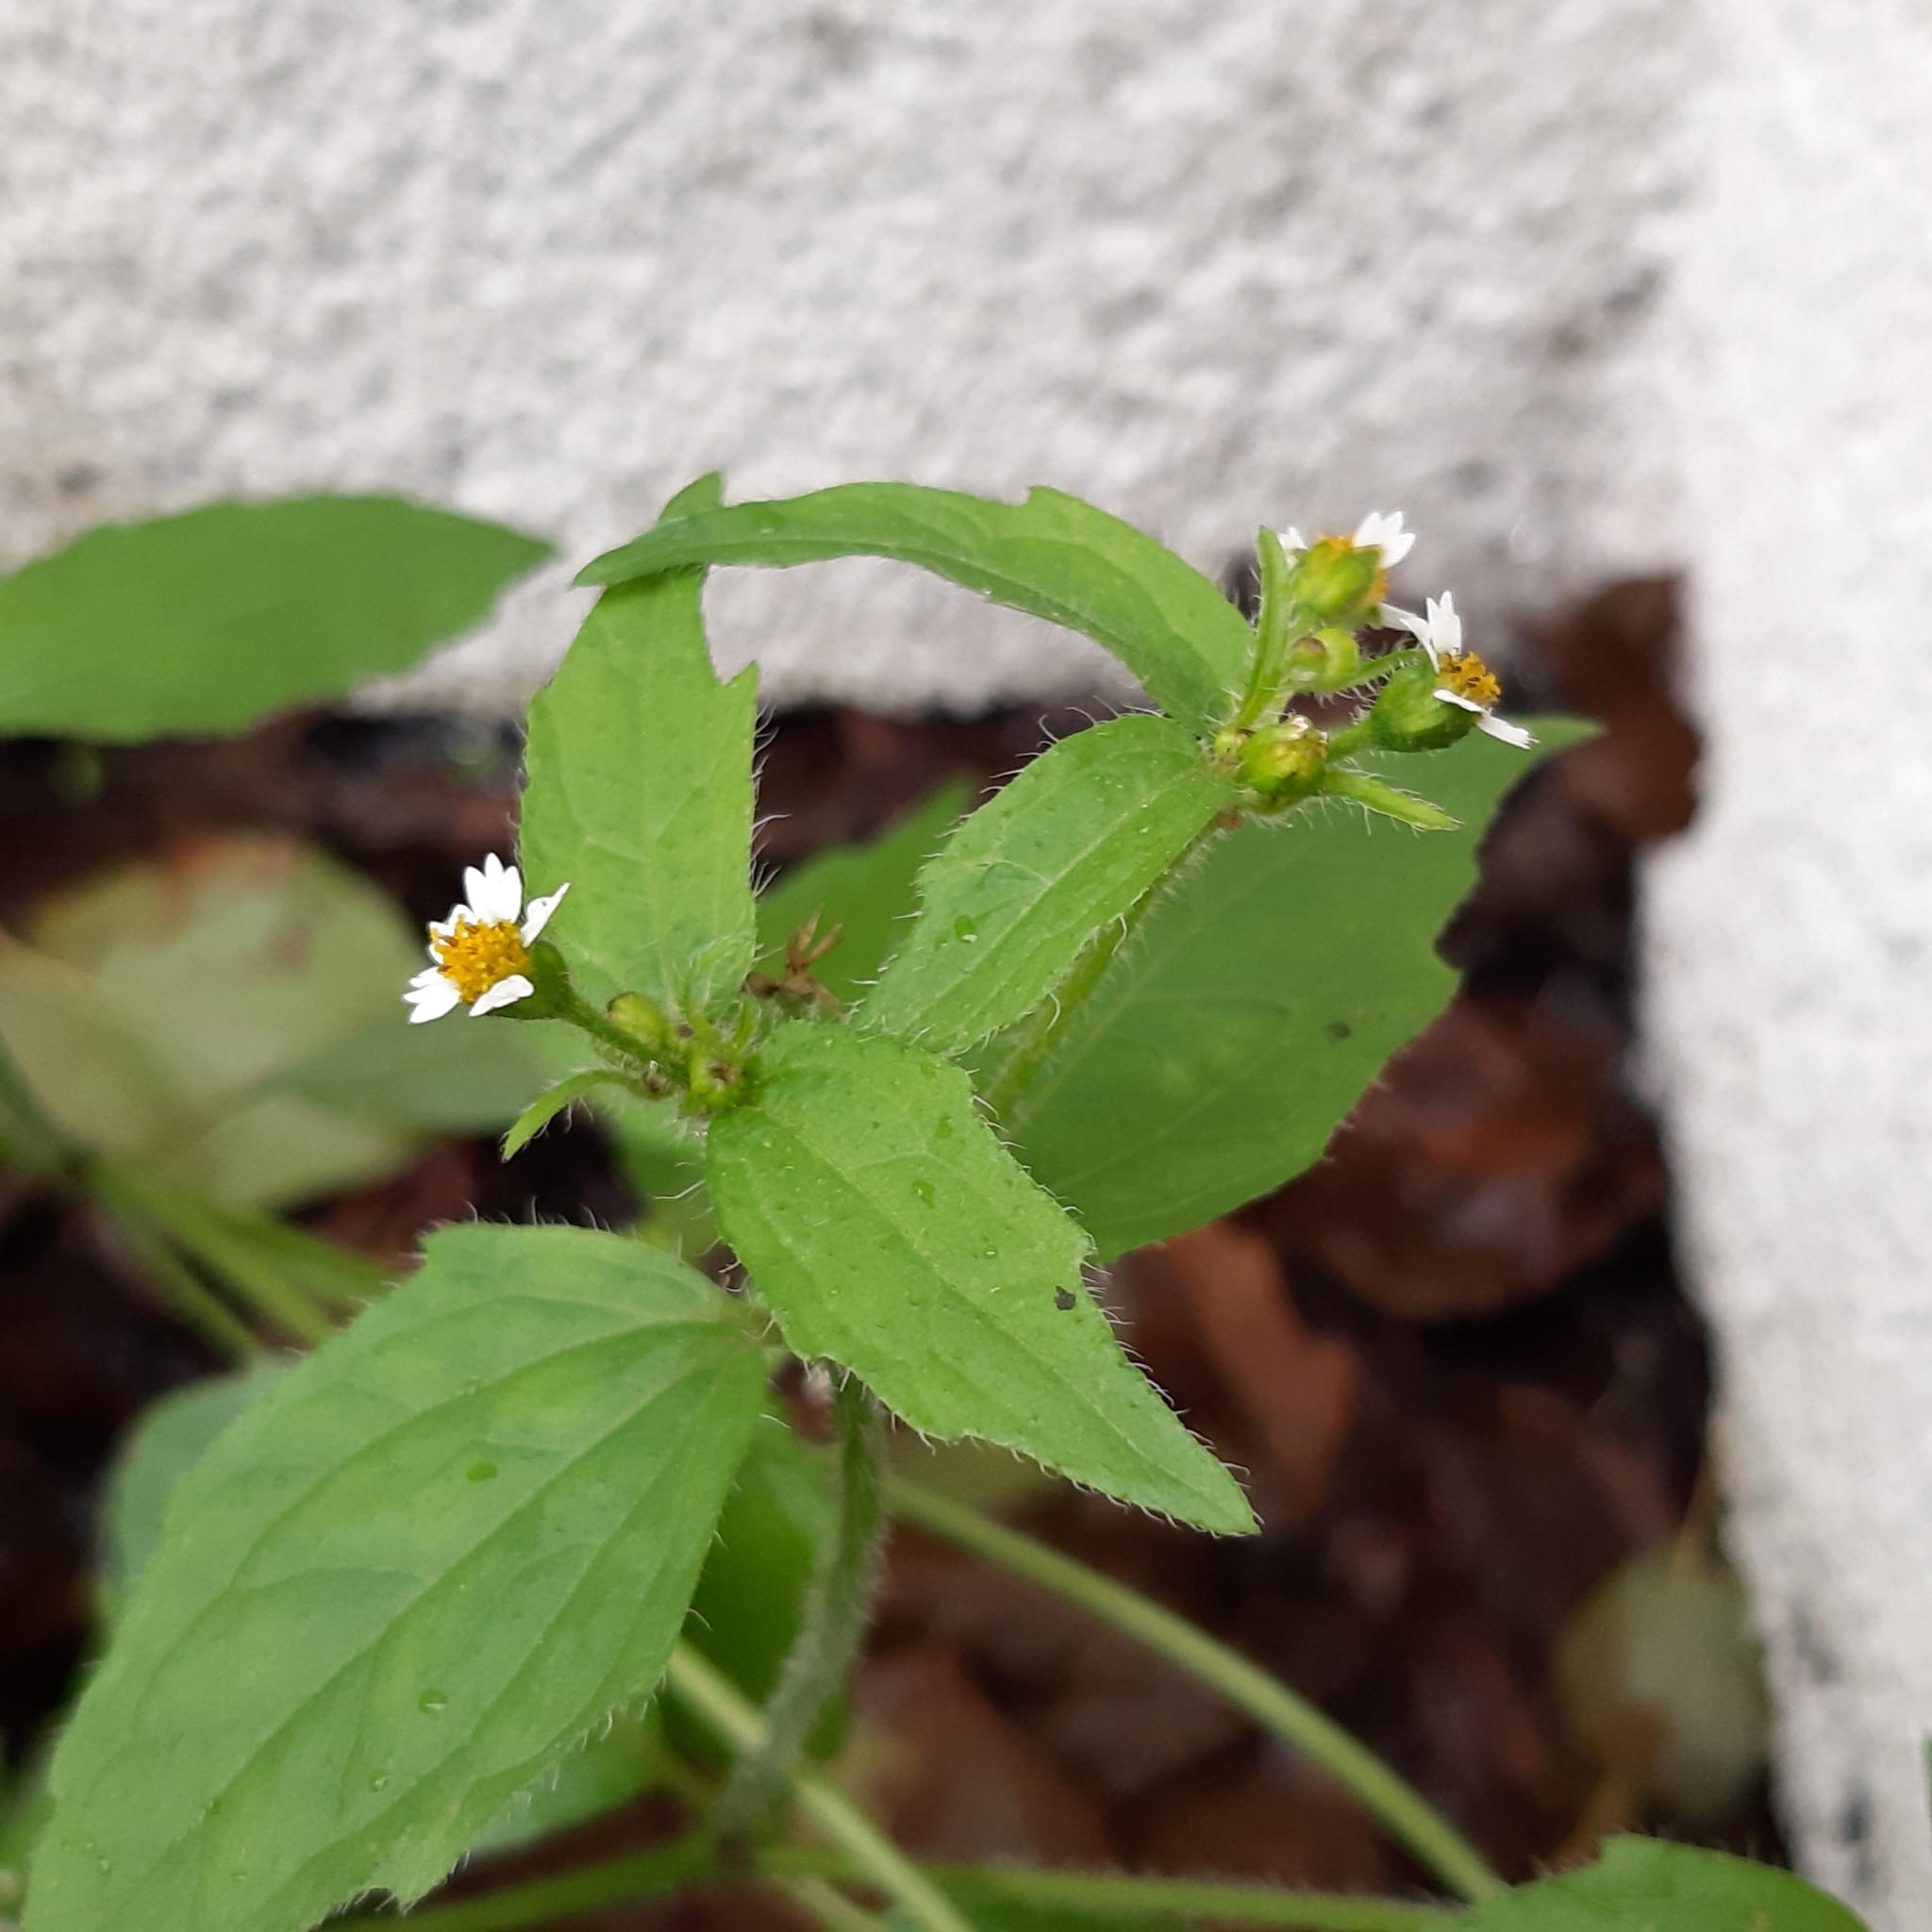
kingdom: Plantae
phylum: Tracheophyta
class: Magnoliopsida
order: Asterales
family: Asteraceae
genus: Galinsoga
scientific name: Galinsoga quadriradiata
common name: Shaggy soldier
